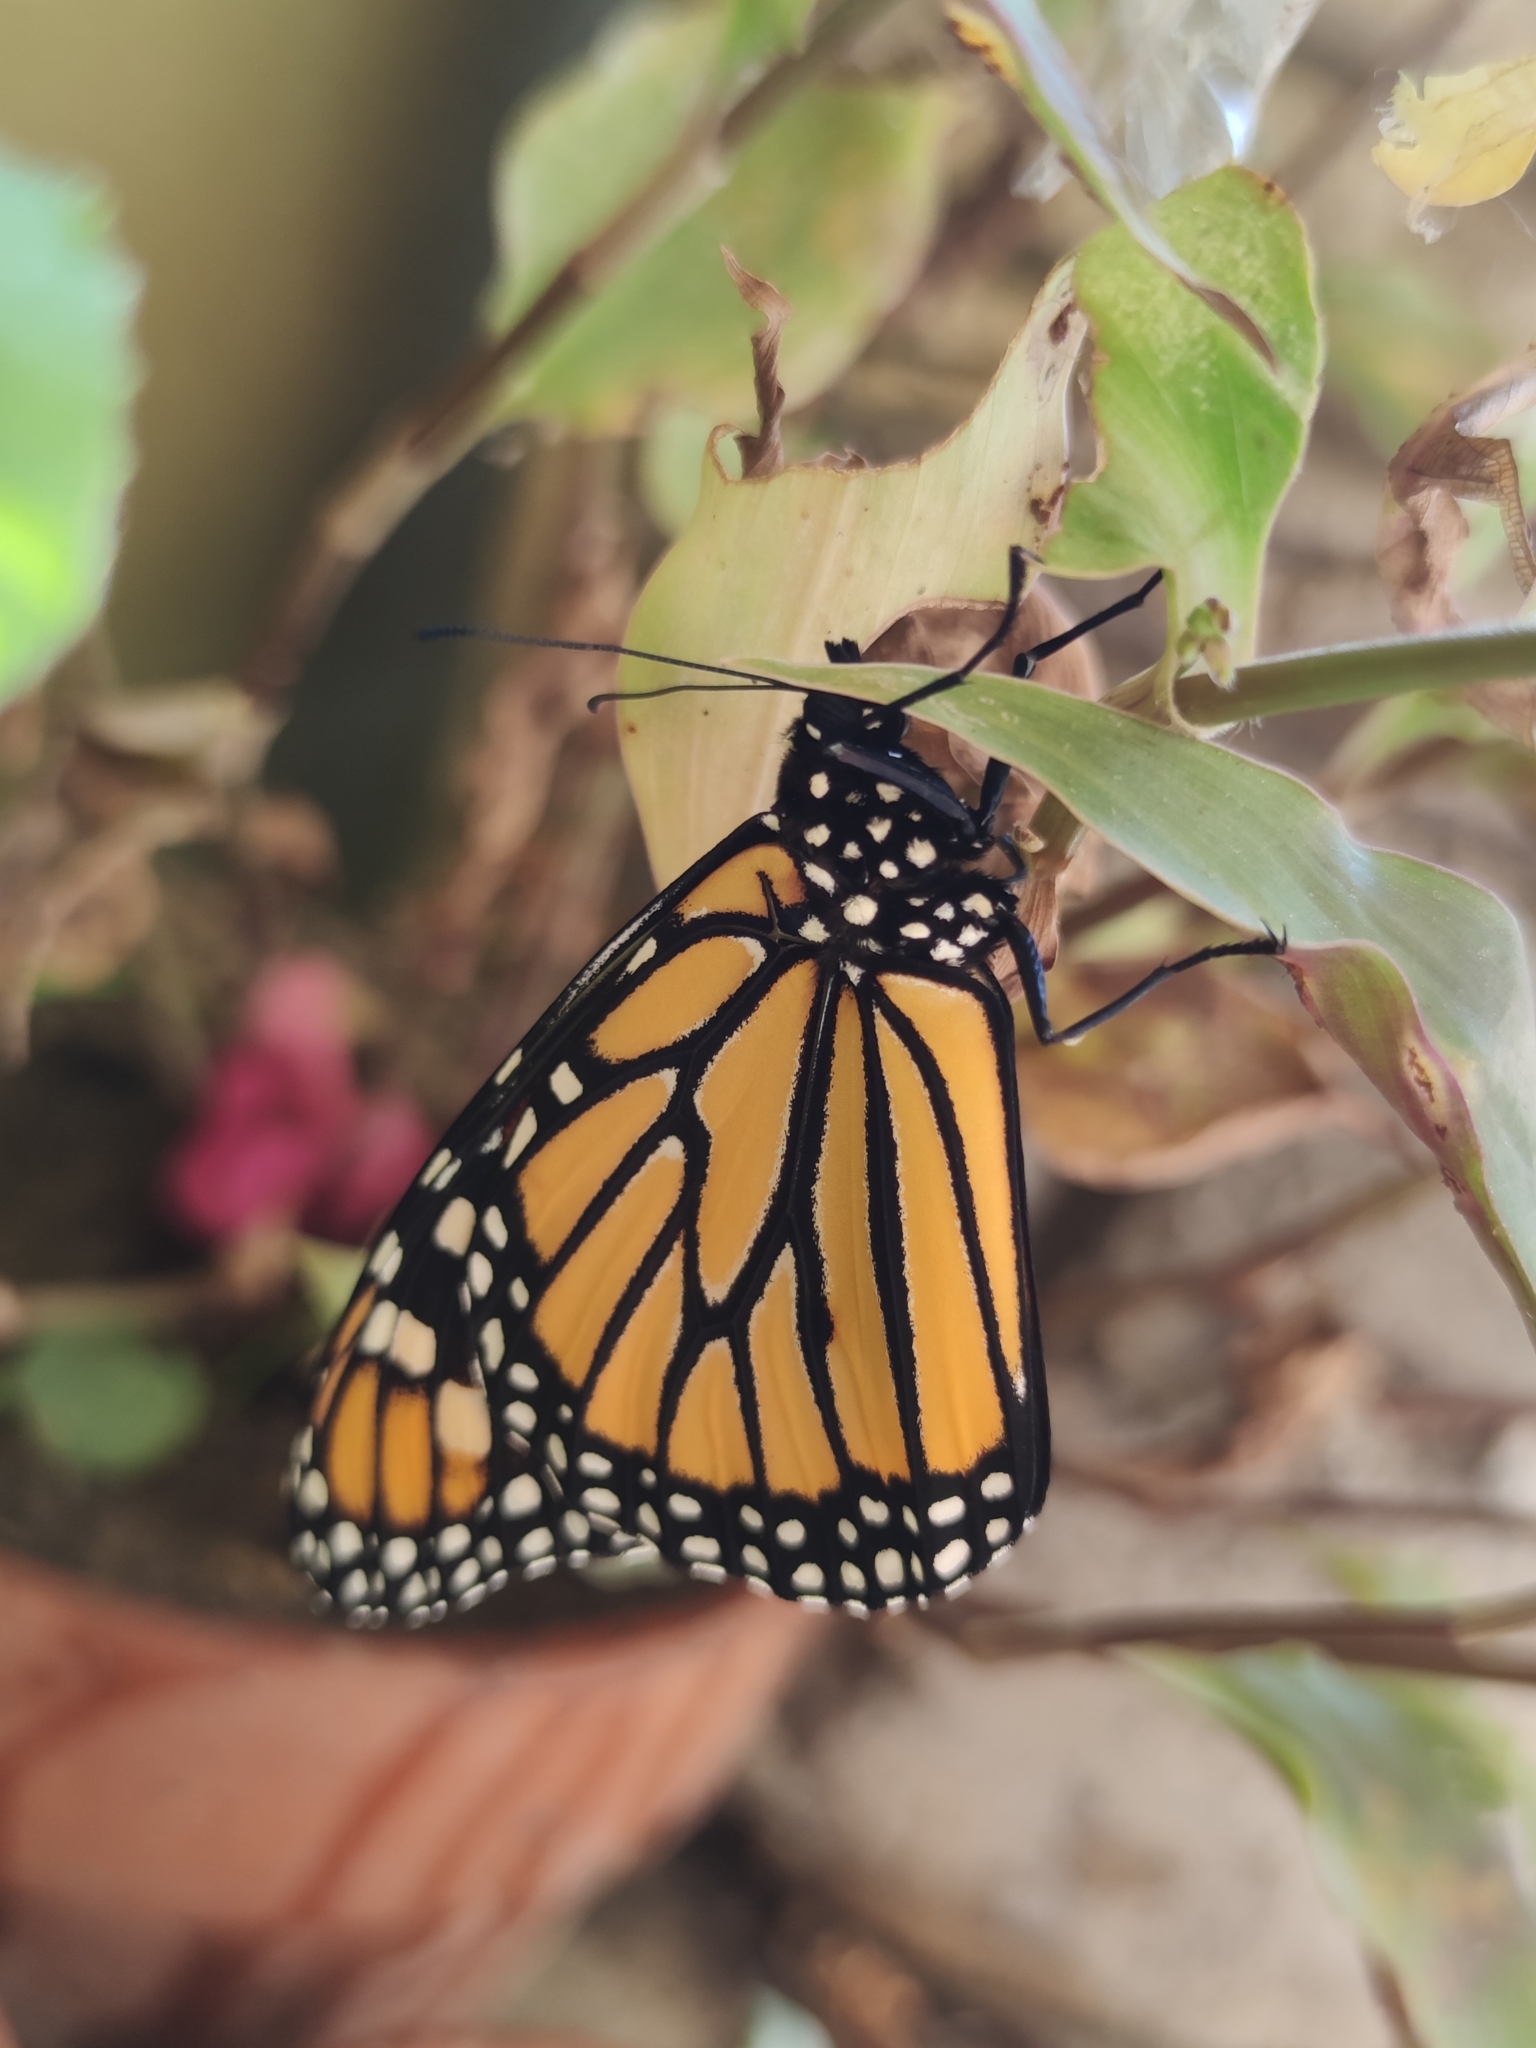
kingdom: Animalia
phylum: Arthropoda
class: Insecta
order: Lepidoptera
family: Nymphalidae
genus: Danaus
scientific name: Danaus plexippus
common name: Monarch
